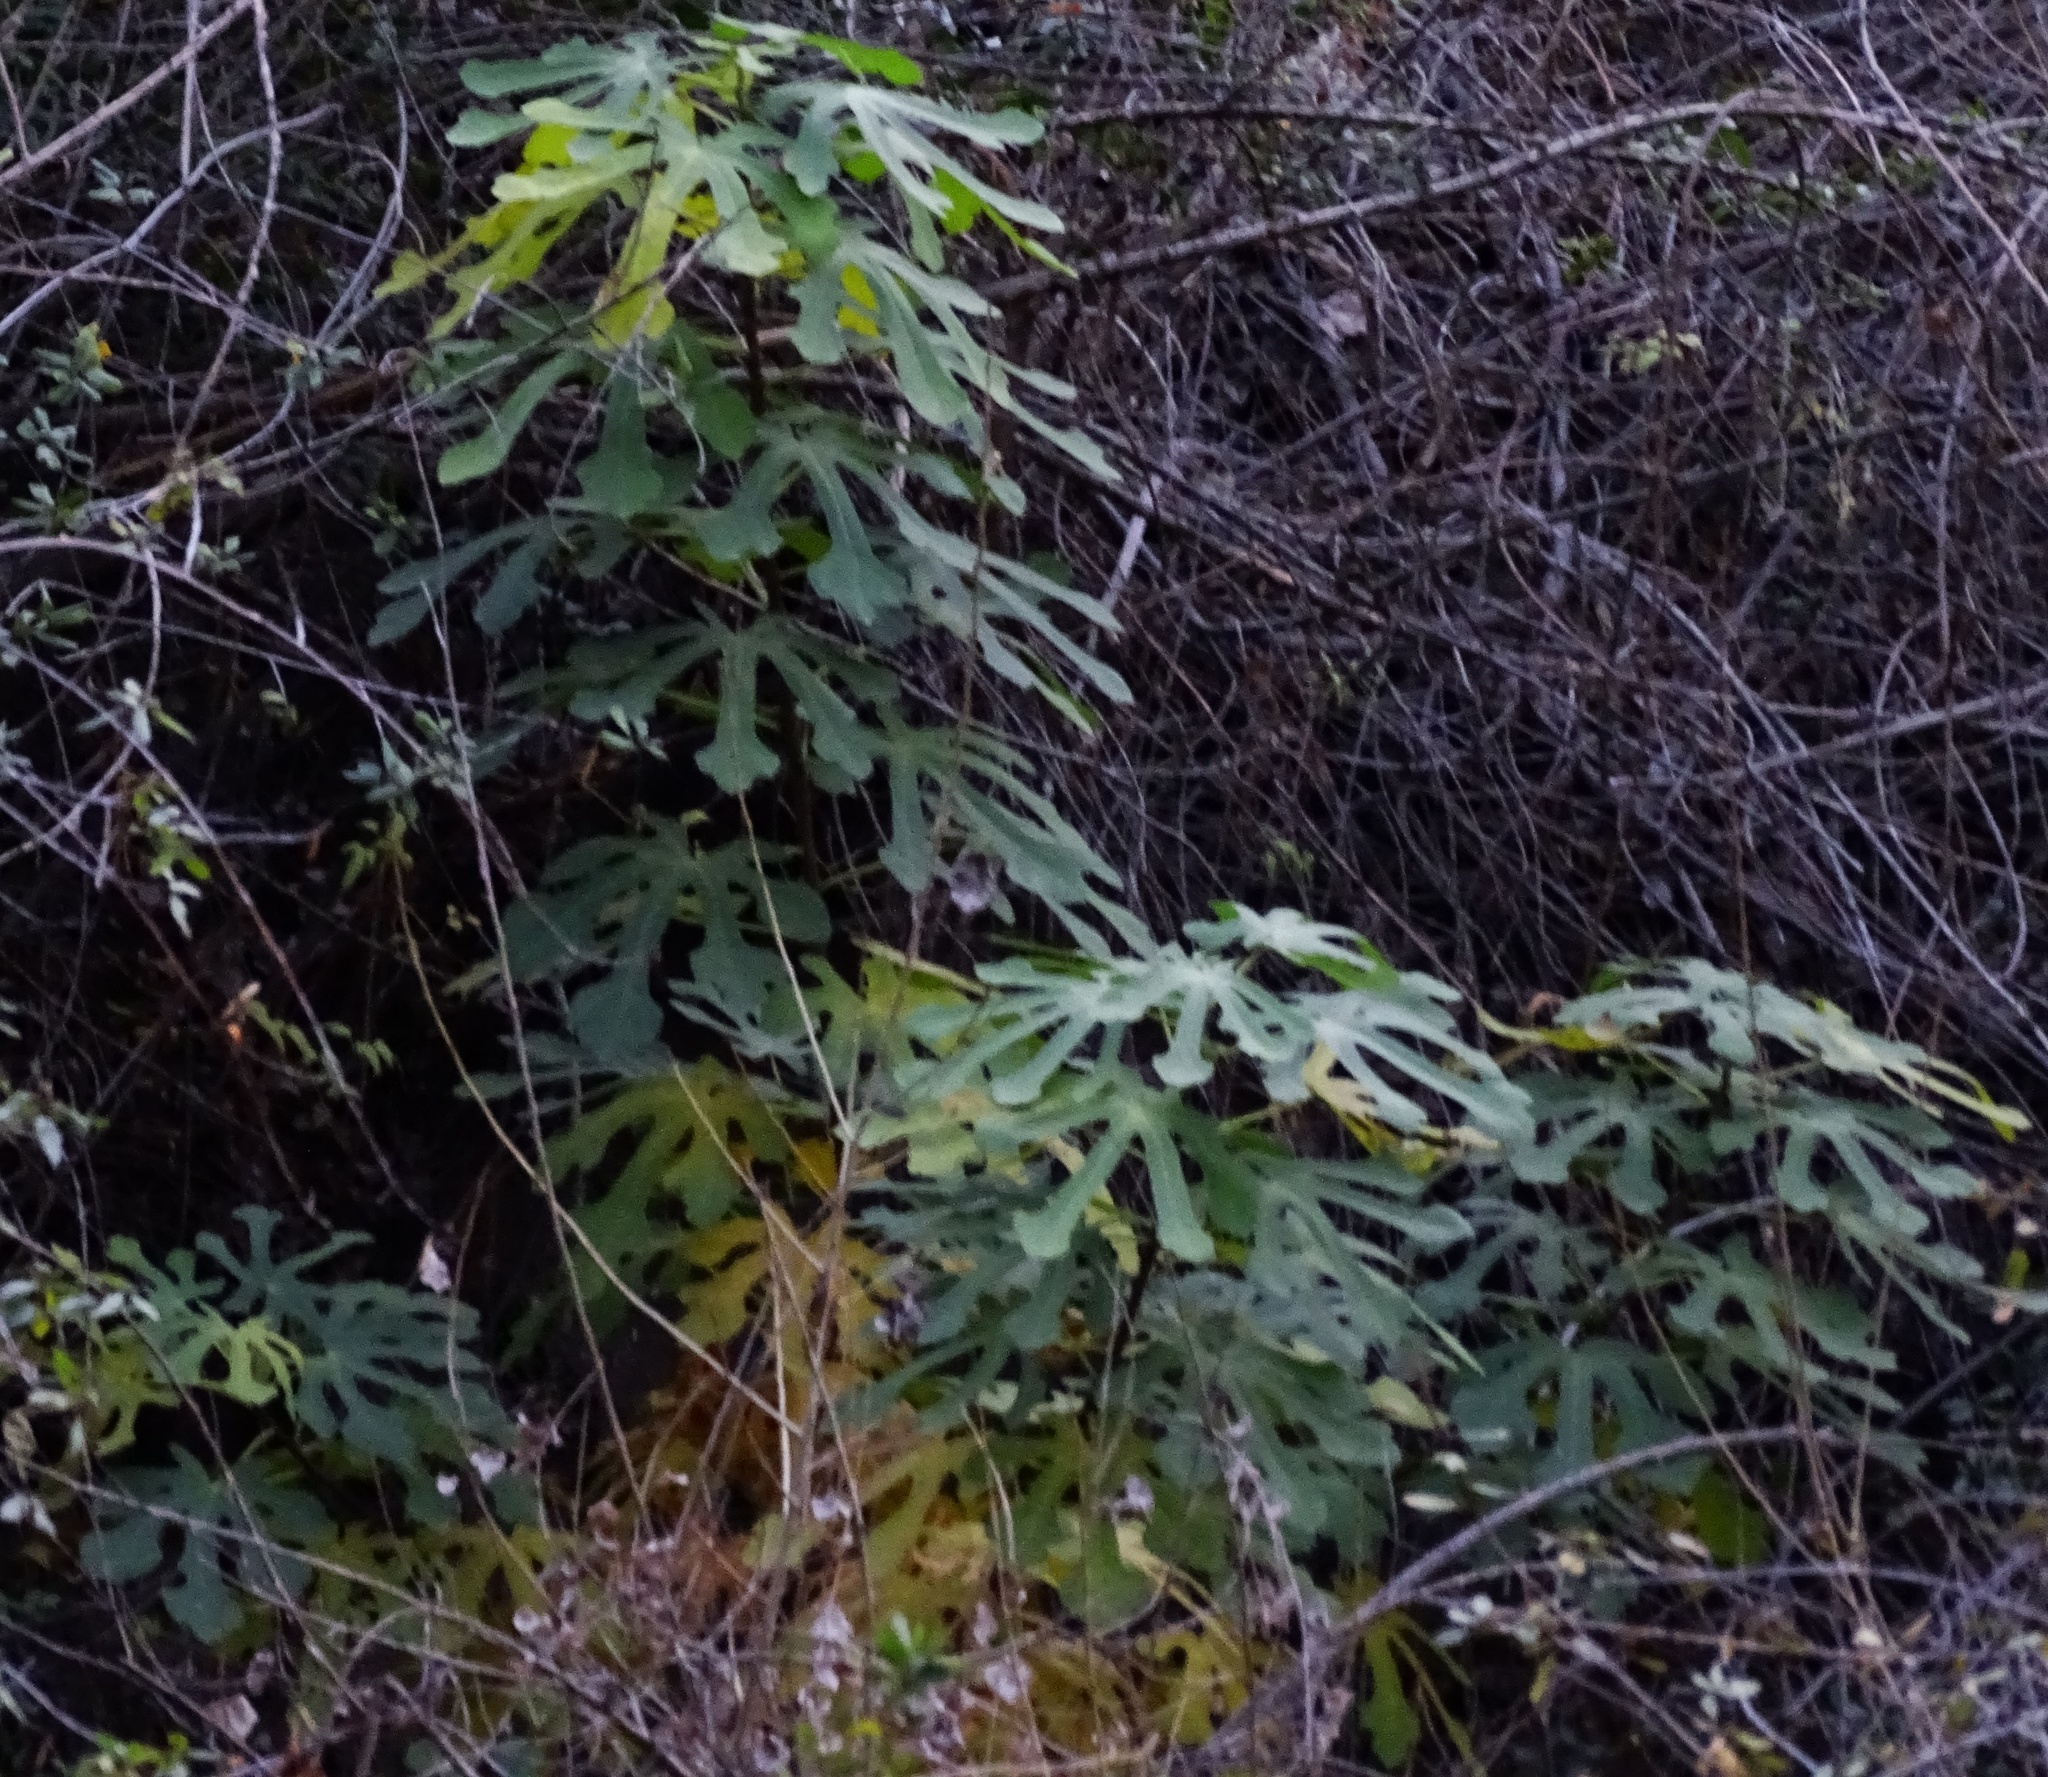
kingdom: Plantae
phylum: Tracheophyta
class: Magnoliopsida
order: Rosales
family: Moraceae
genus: Ficus
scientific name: Ficus carica
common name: Fig
